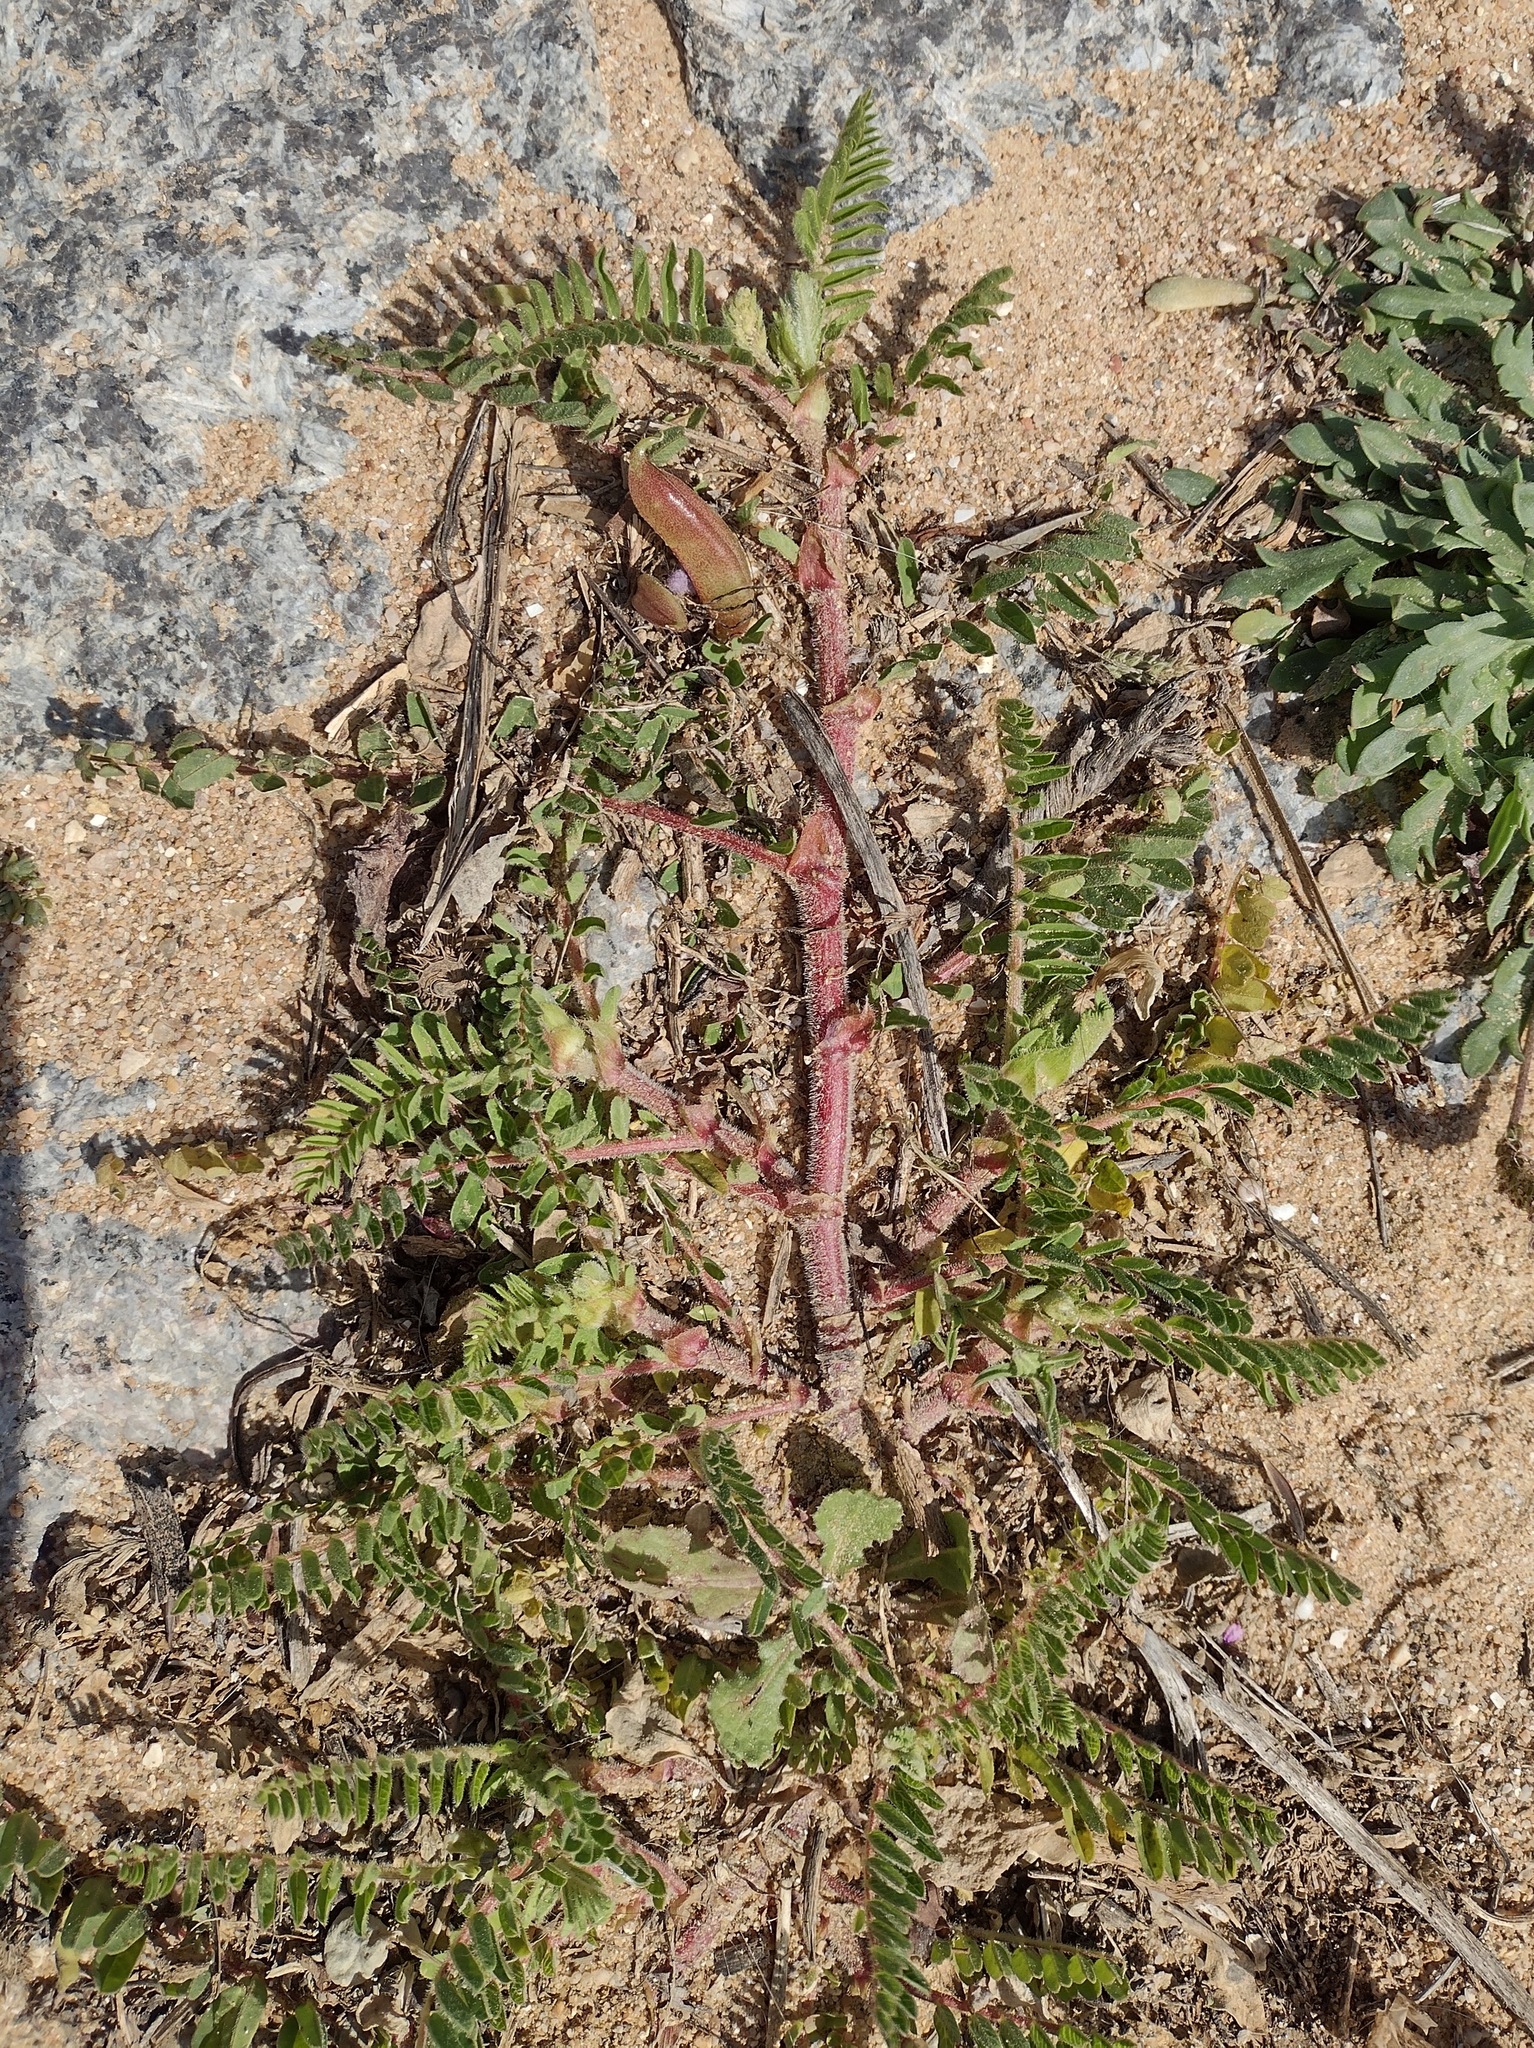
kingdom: Plantae
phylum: Tracheophyta
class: Magnoliopsida
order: Fabales
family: Fabaceae
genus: Astragalus
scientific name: Astragalus boeticus
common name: Milk-vetch
